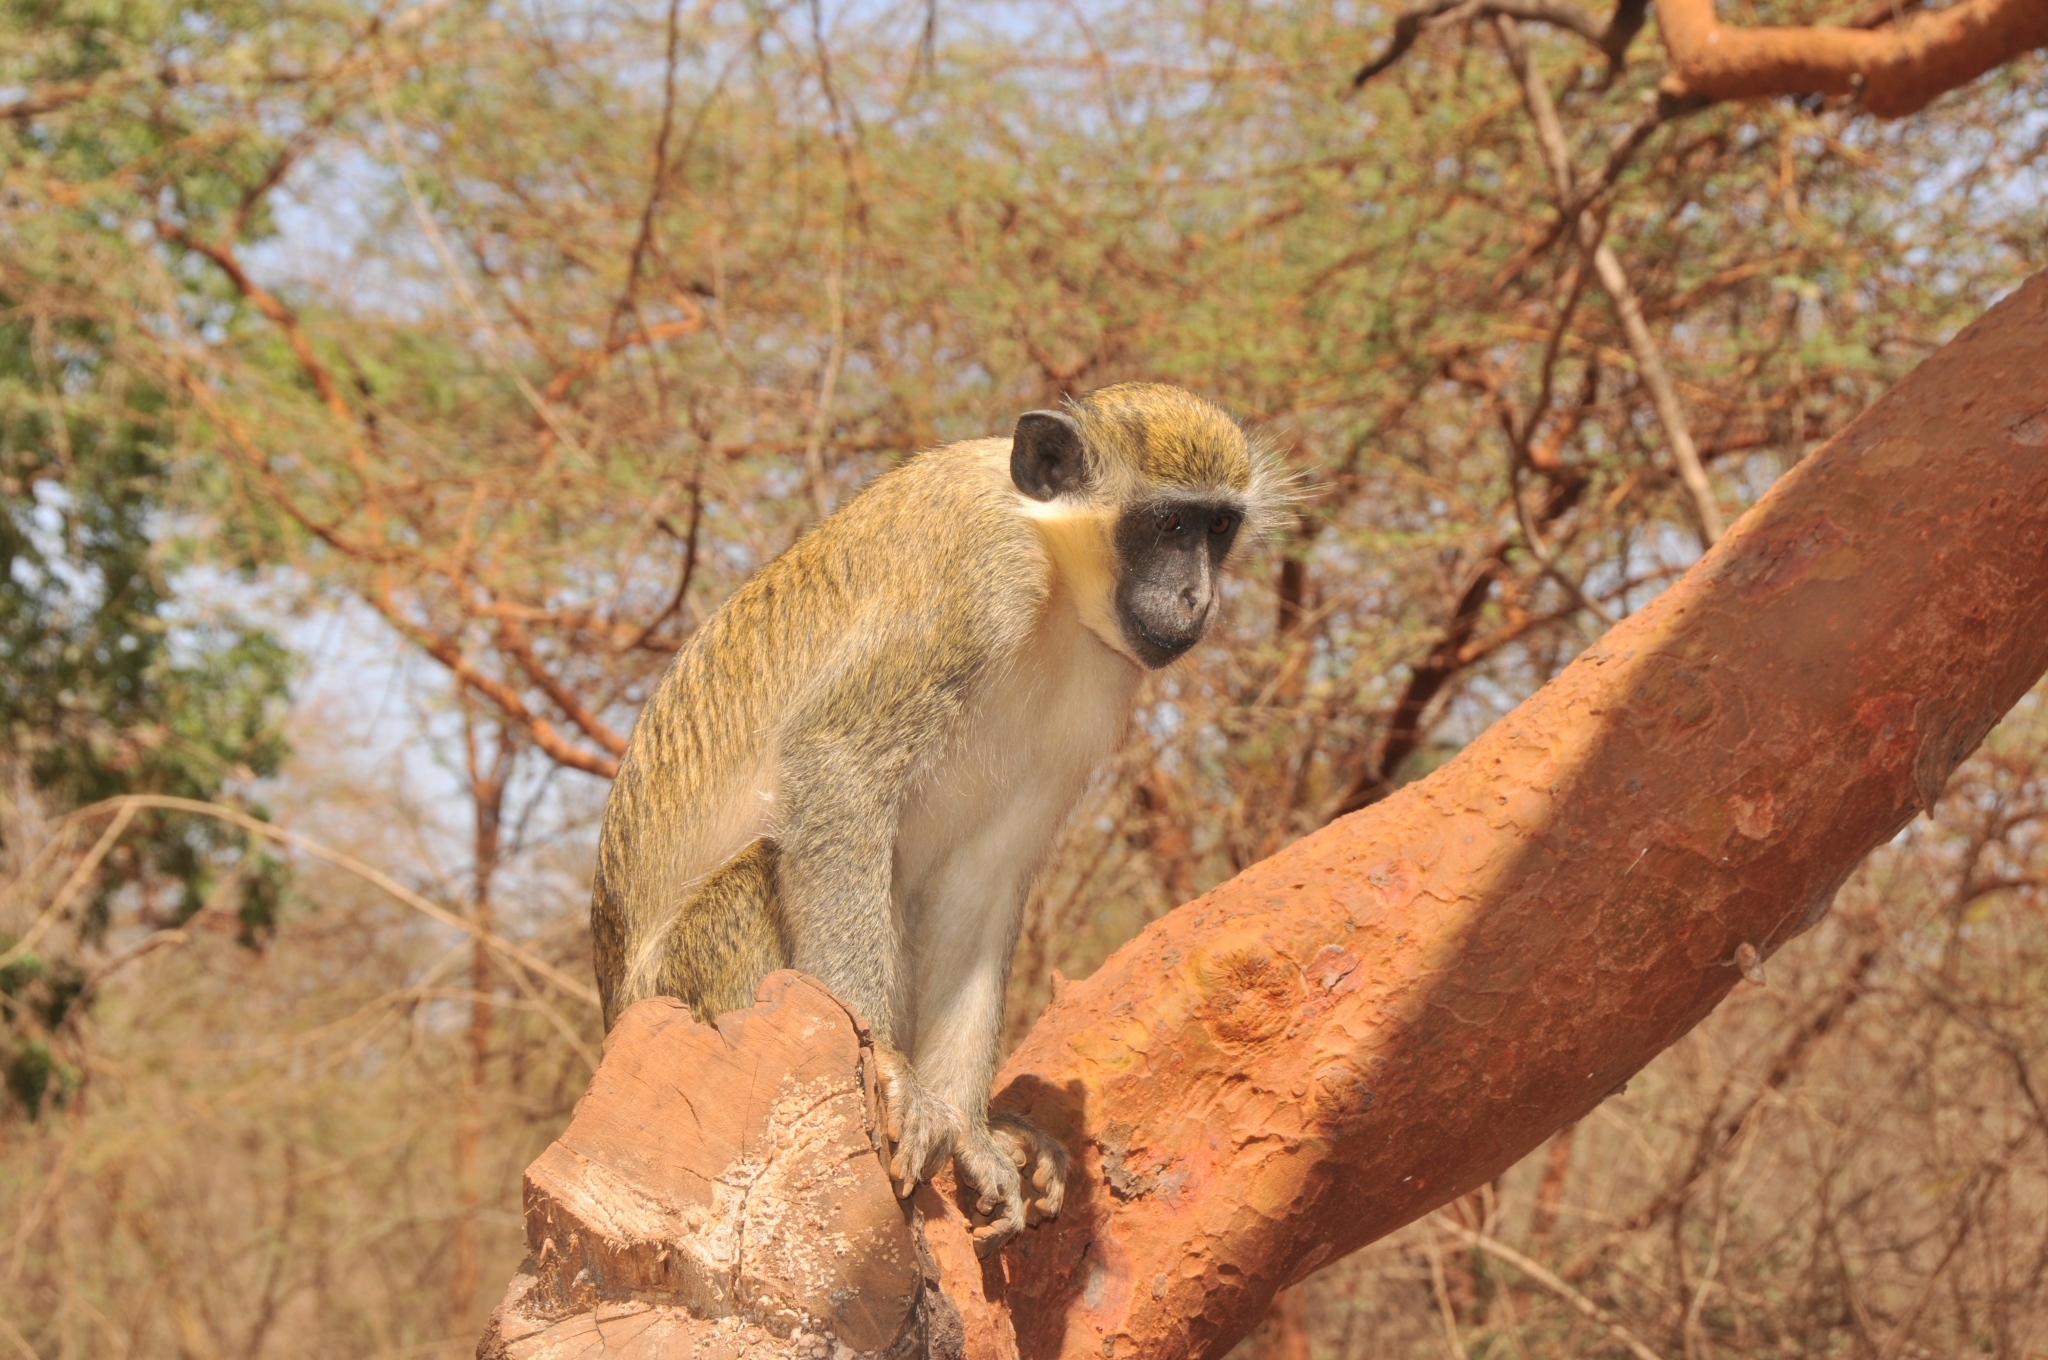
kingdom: Animalia
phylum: Chordata
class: Mammalia
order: Primates
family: Cercopithecidae
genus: Chlorocebus
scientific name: Chlorocebus sabaeus
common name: Green monkey
